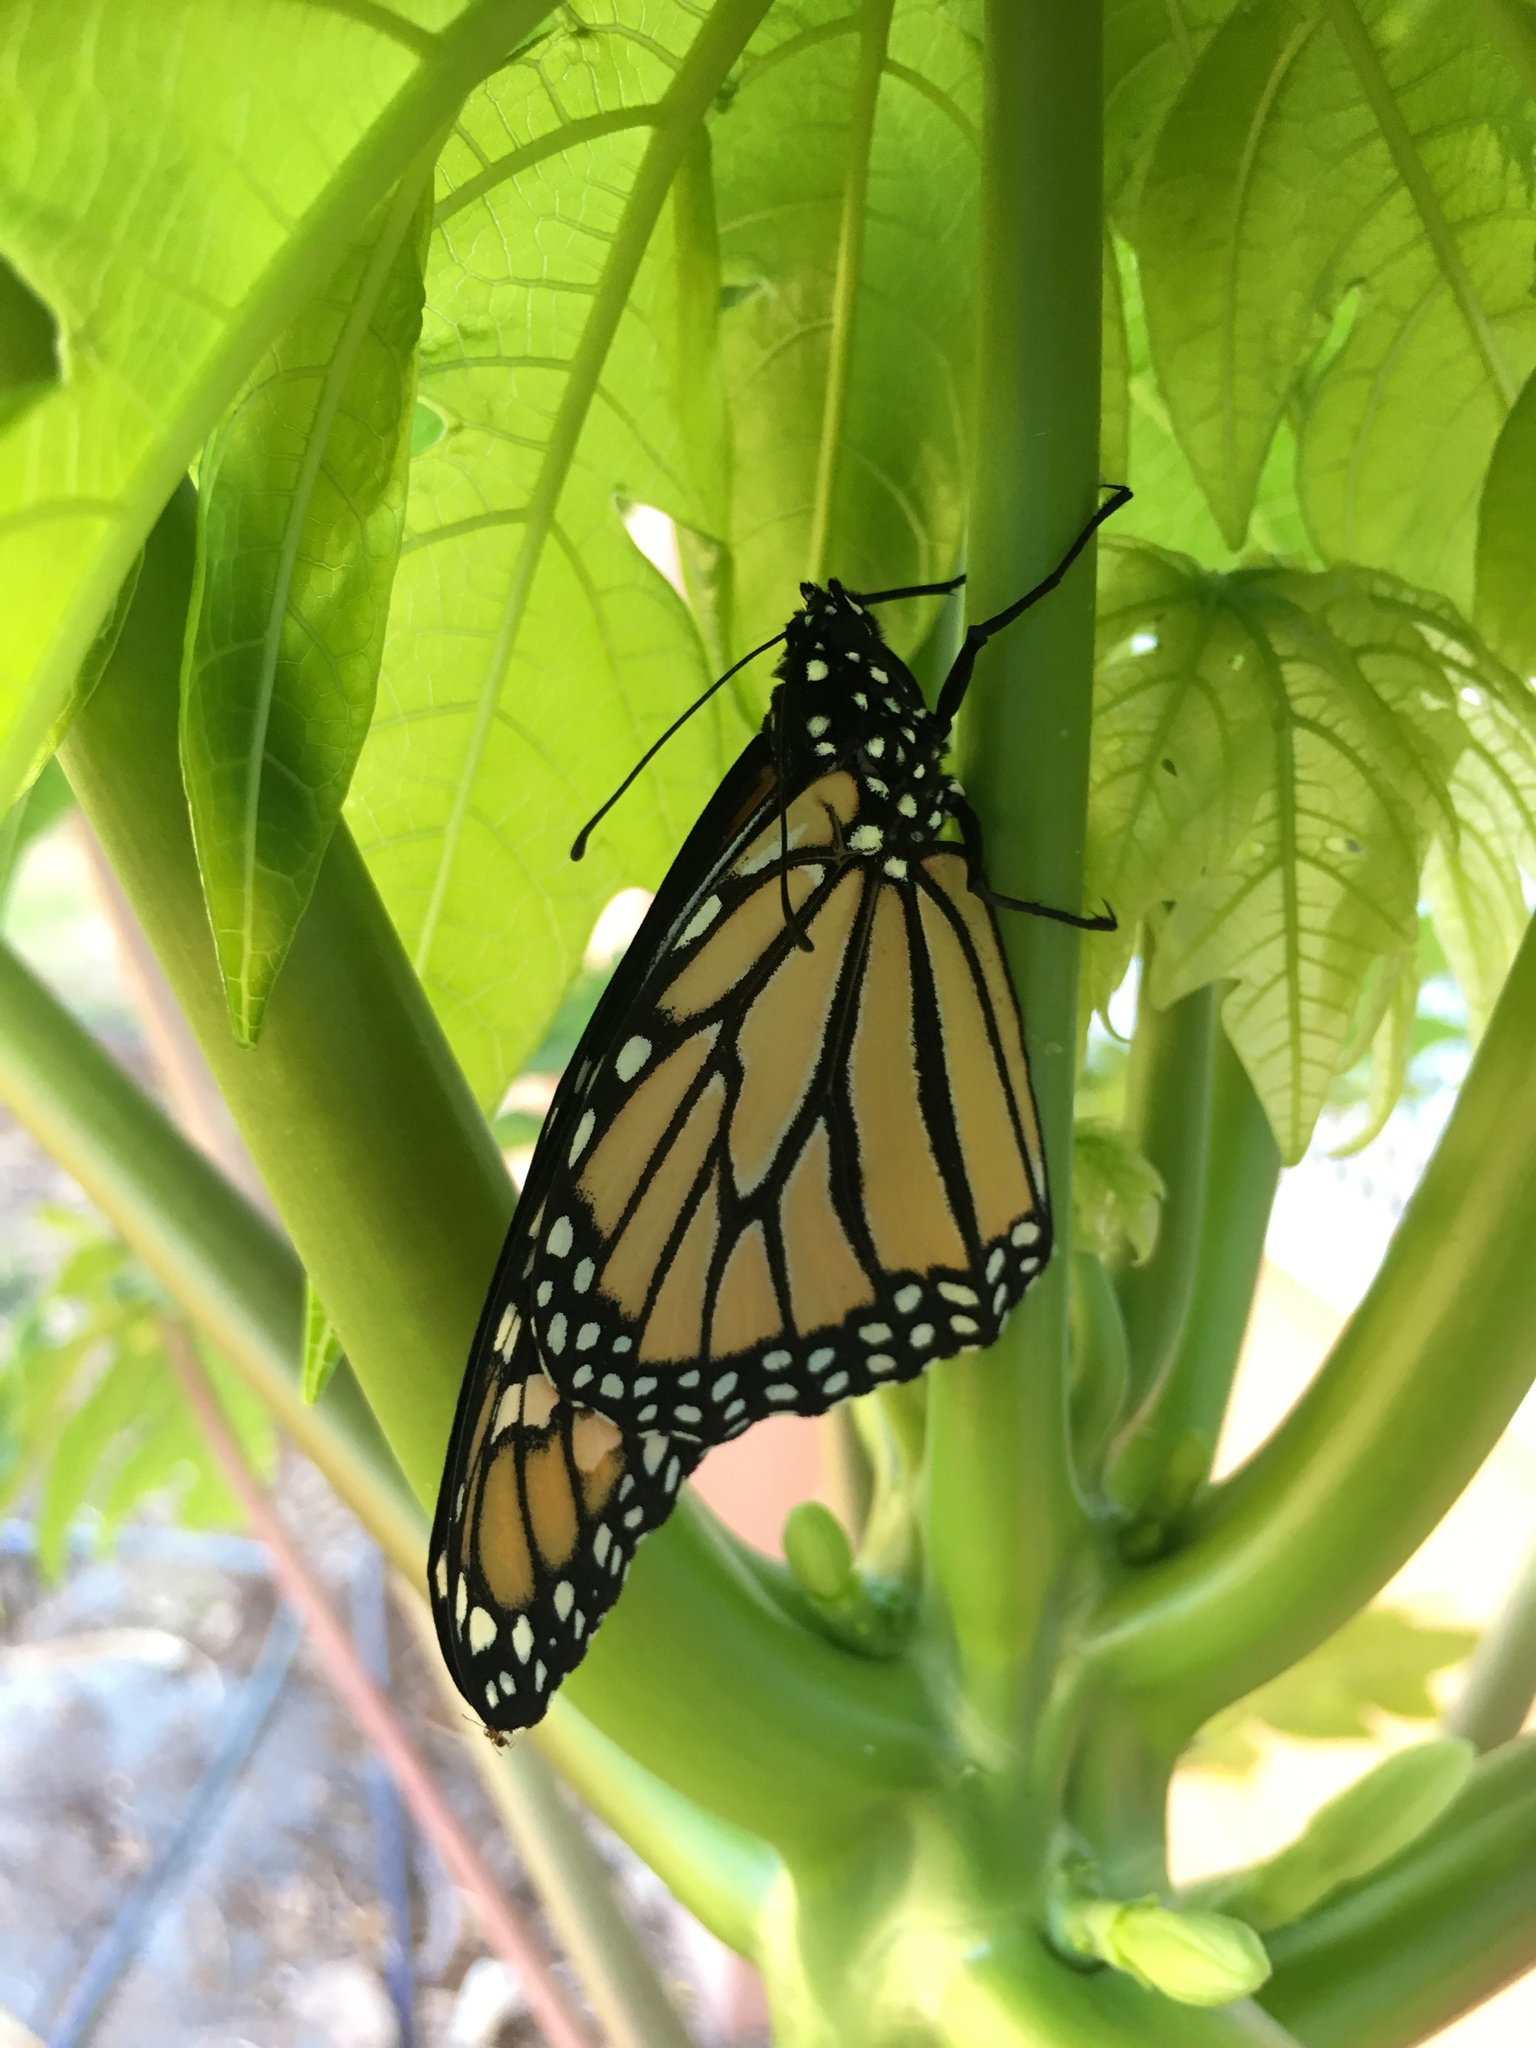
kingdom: Animalia
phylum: Arthropoda
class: Insecta
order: Lepidoptera
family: Nymphalidae
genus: Danaus
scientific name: Danaus plexippus
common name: Monarch
